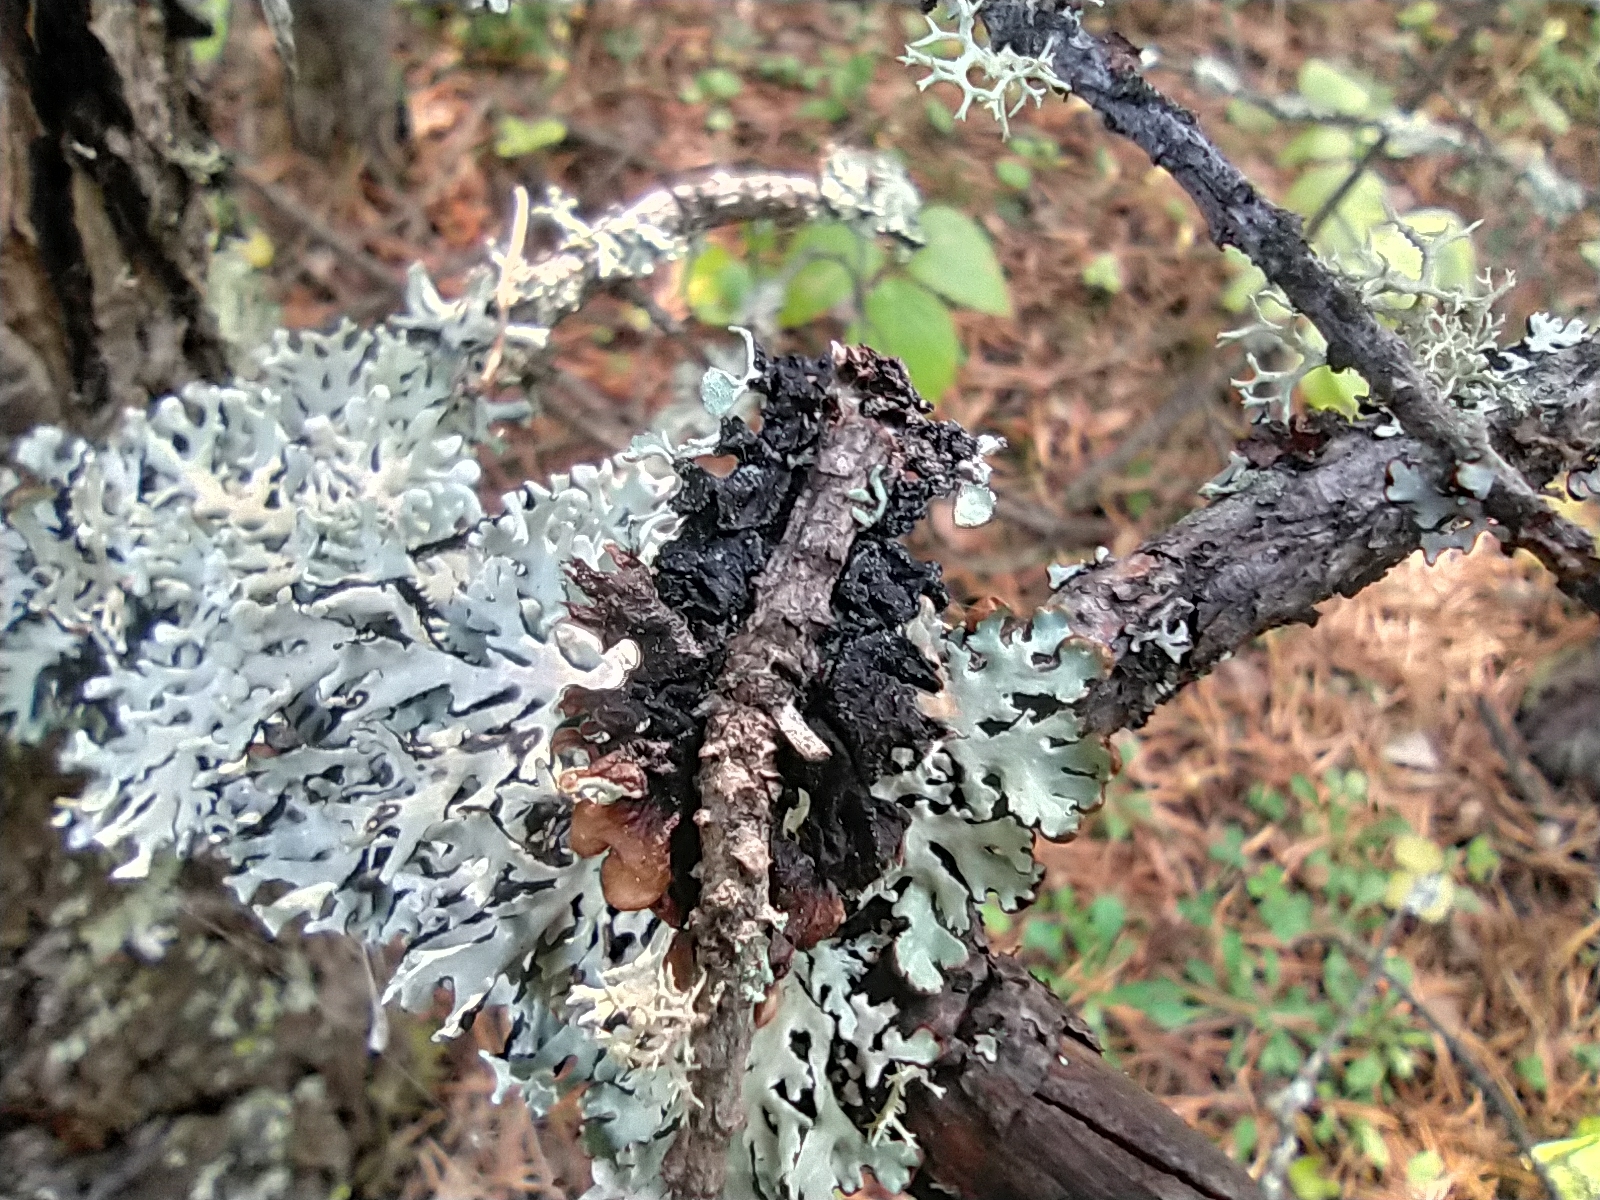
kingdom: Fungi
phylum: Ascomycota
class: Lecanoromycetes
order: Lecanorales
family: Parmeliaceae
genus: Hypogymnia
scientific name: Hypogymnia physodes
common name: Dark crottle
